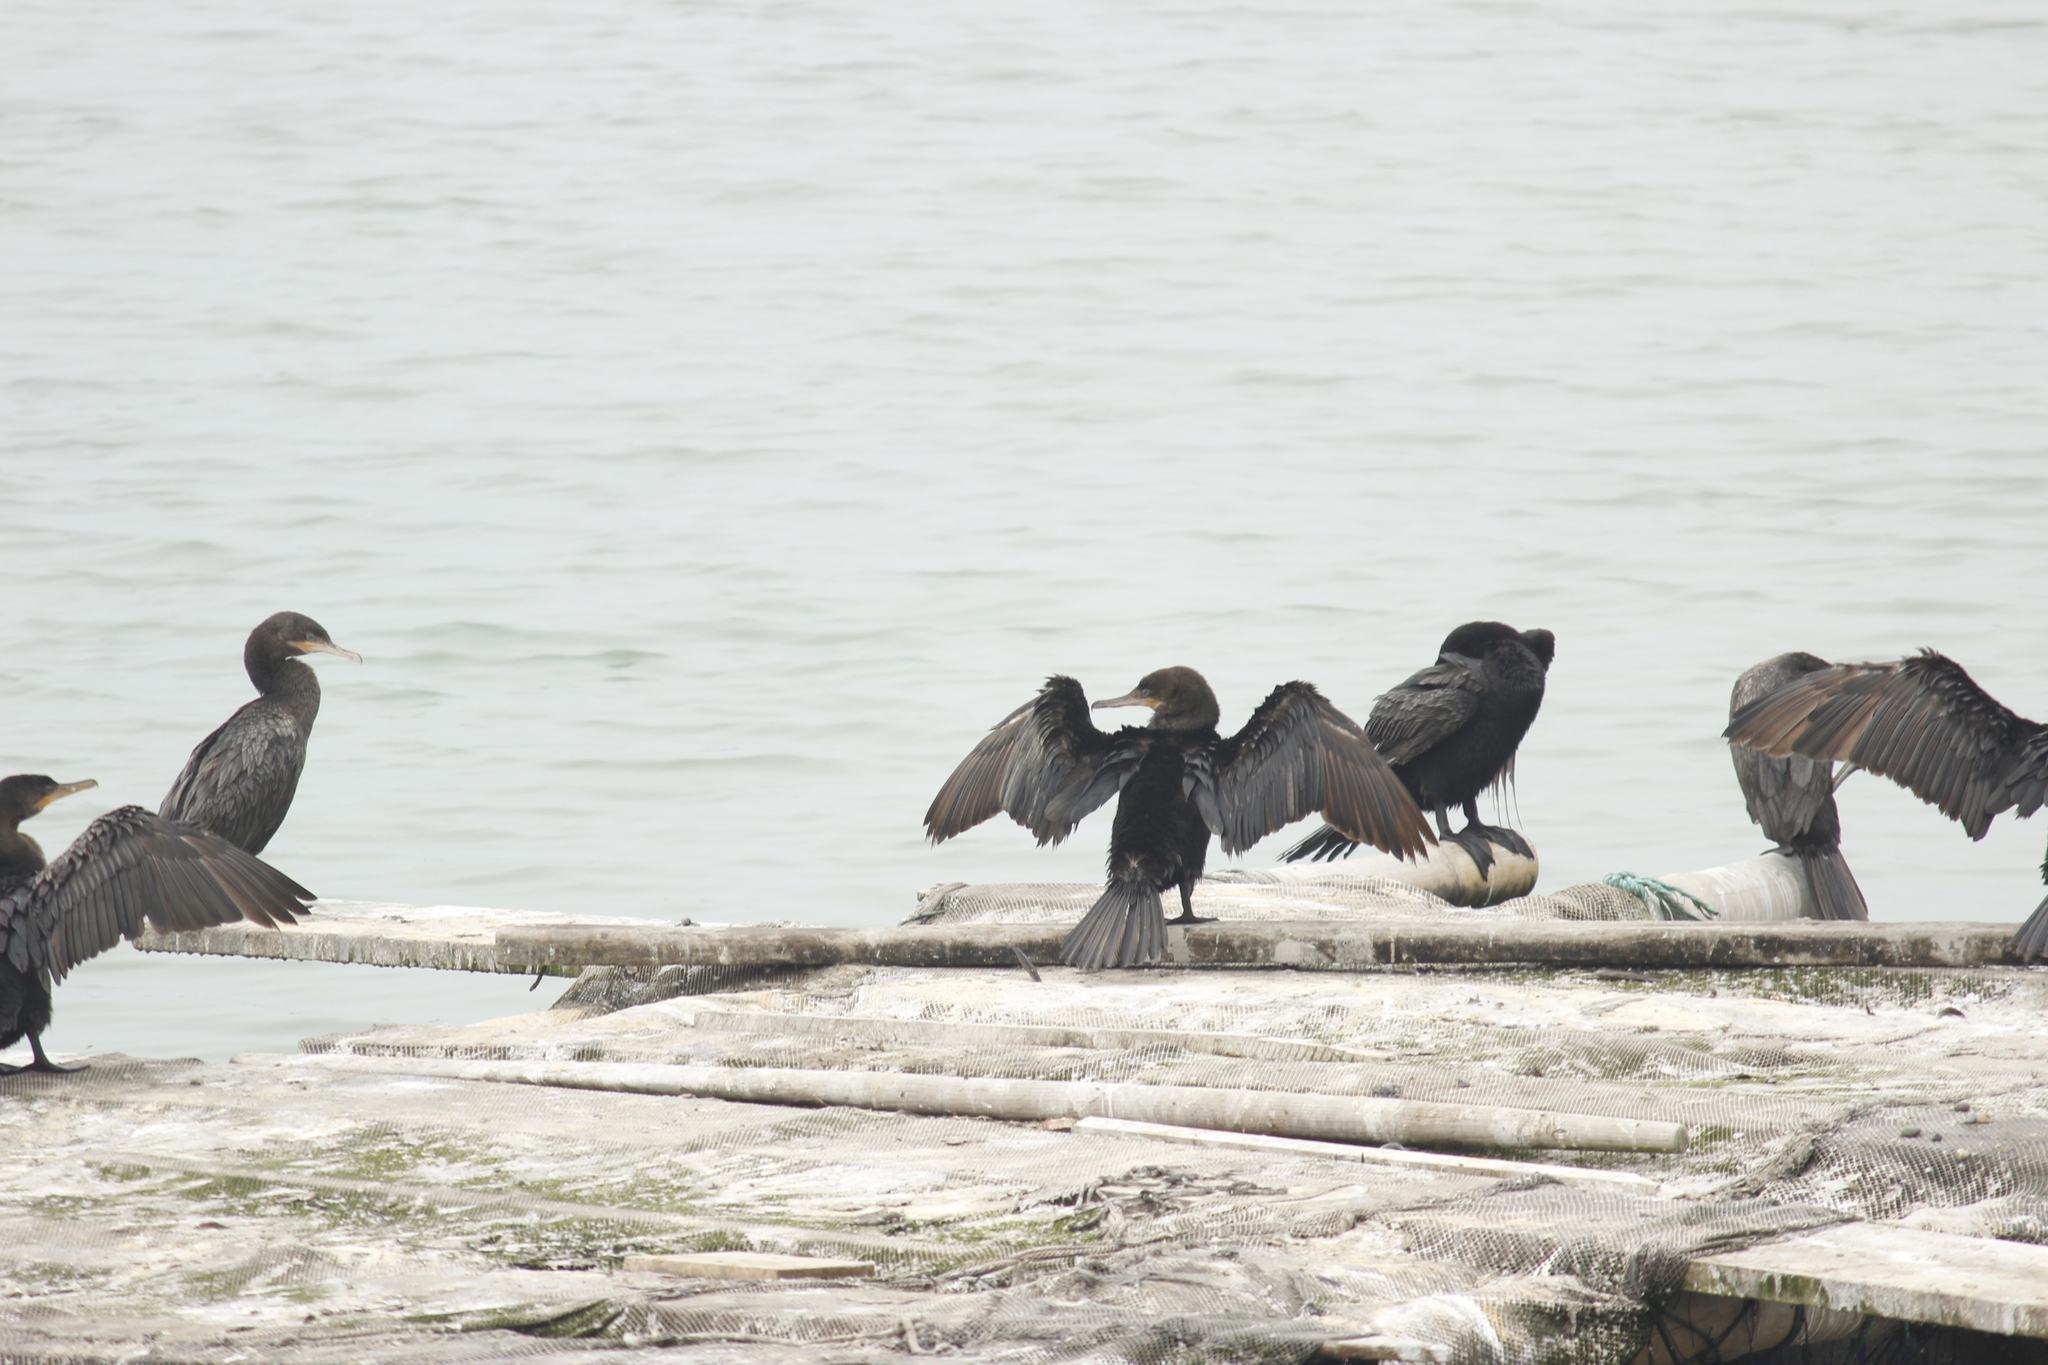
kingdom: Animalia
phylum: Chordata
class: Aves
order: Suliformes
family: Phalacrocoracidae
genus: Phalacrocorax
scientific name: Phalacrocorax brasilianus
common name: Neotropic cormorant
